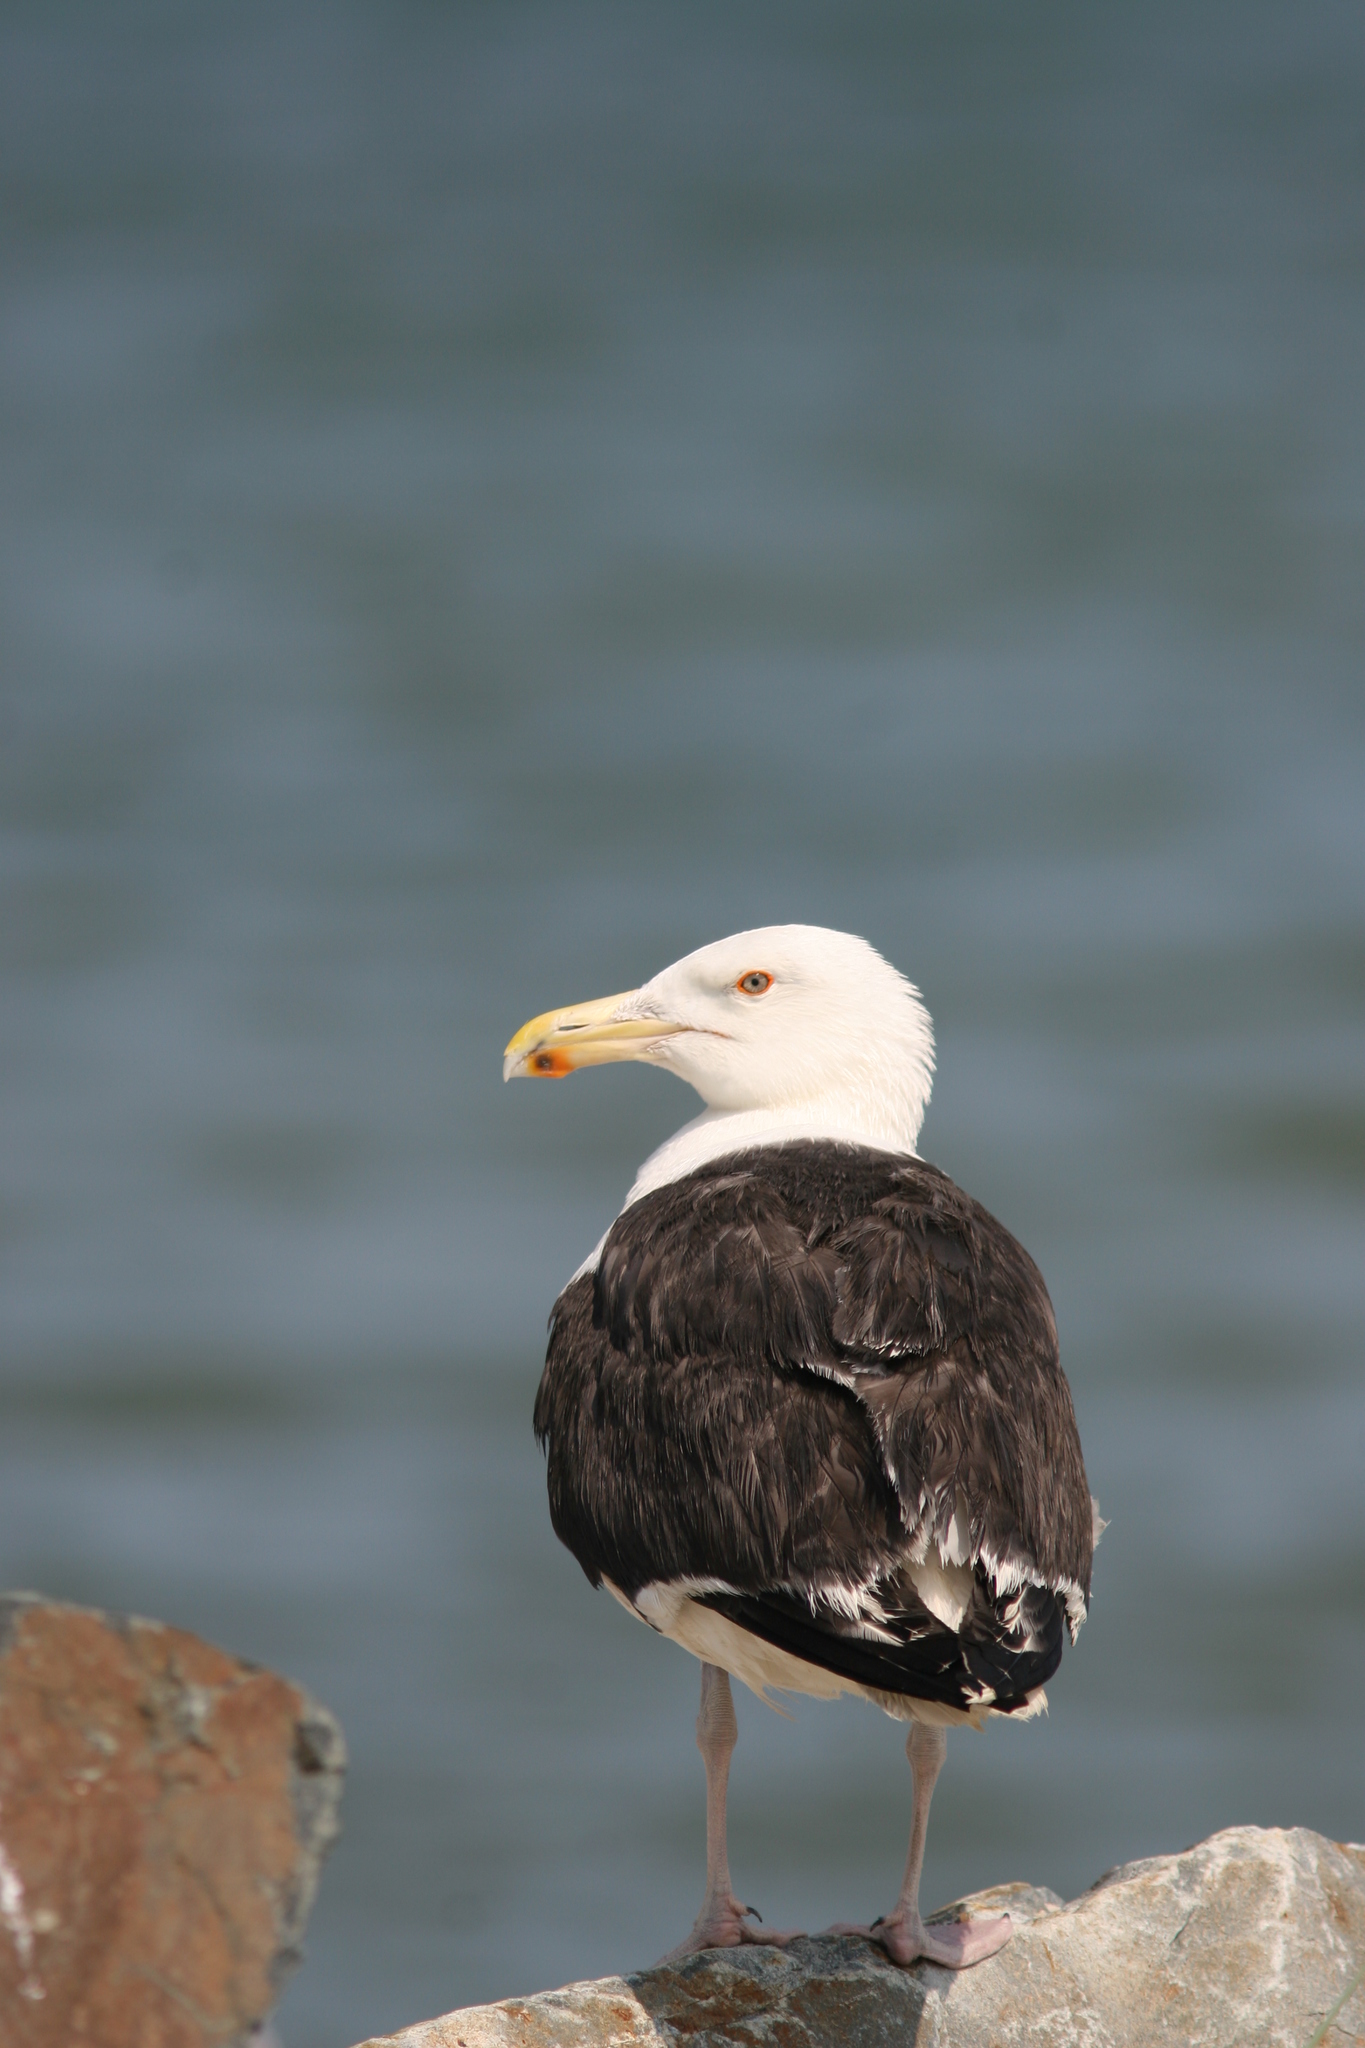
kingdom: Animalia
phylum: Chordata
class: Aves
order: Charadriiformes
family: Laridae
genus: Larus
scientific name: Larus marinus
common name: Great black-backed gull
